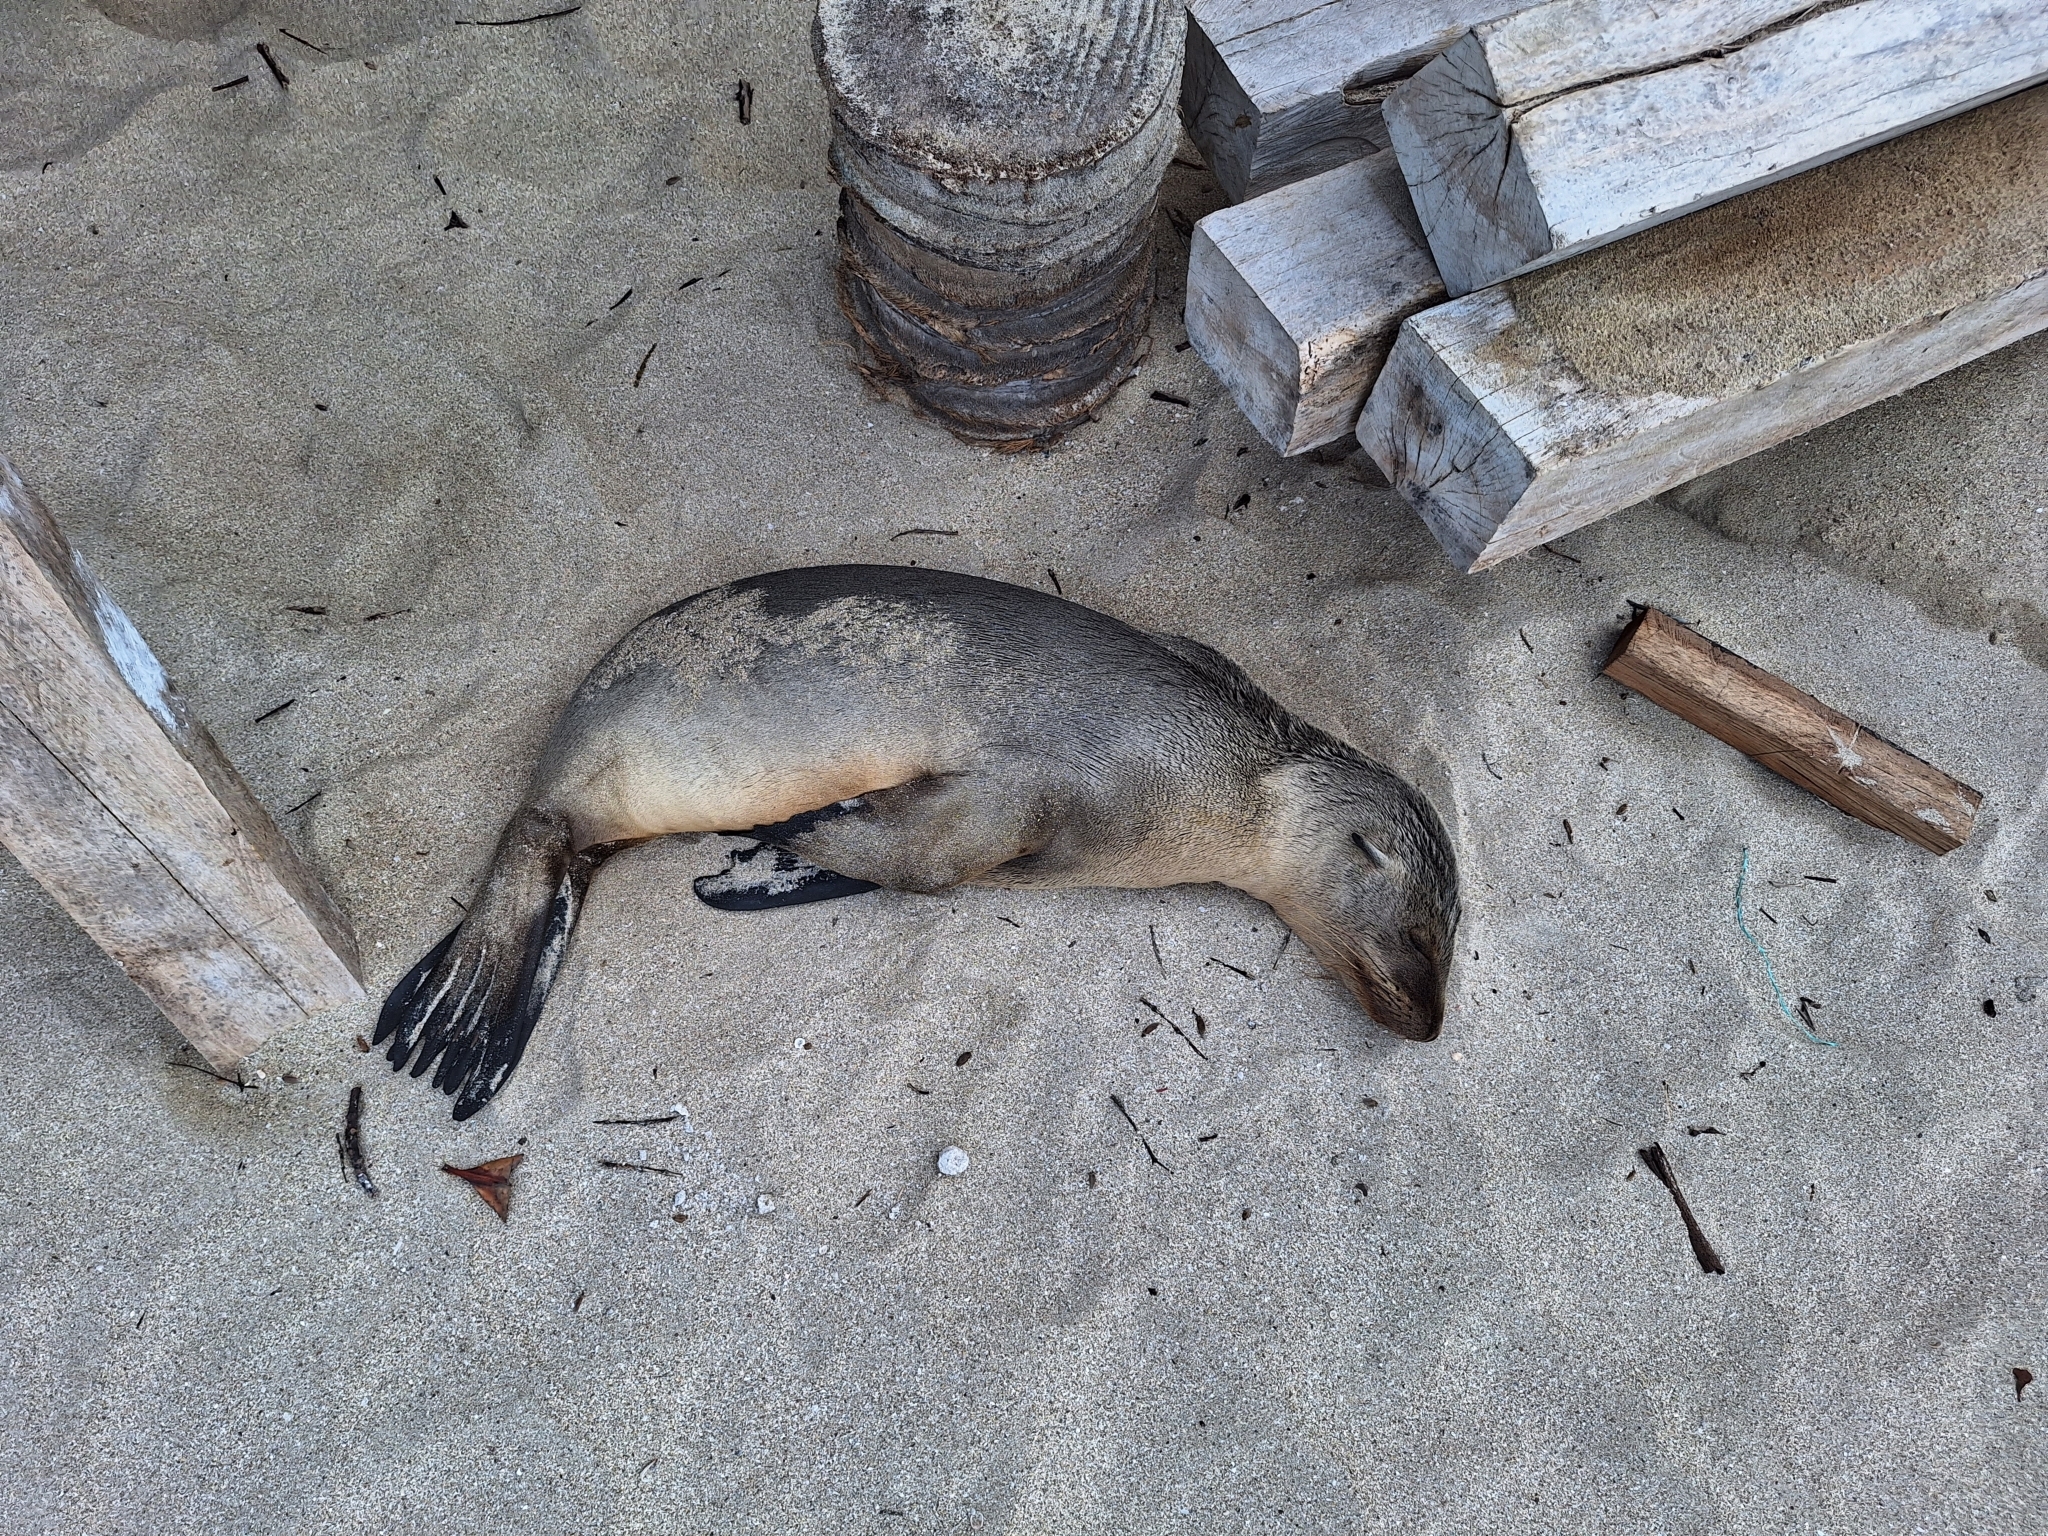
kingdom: Animalia
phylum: Chordata
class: Mammalia
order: Carnivora
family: Otariidae
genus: Zalophus
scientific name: Zalophus wollebaeki
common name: Galapagos sea lion
